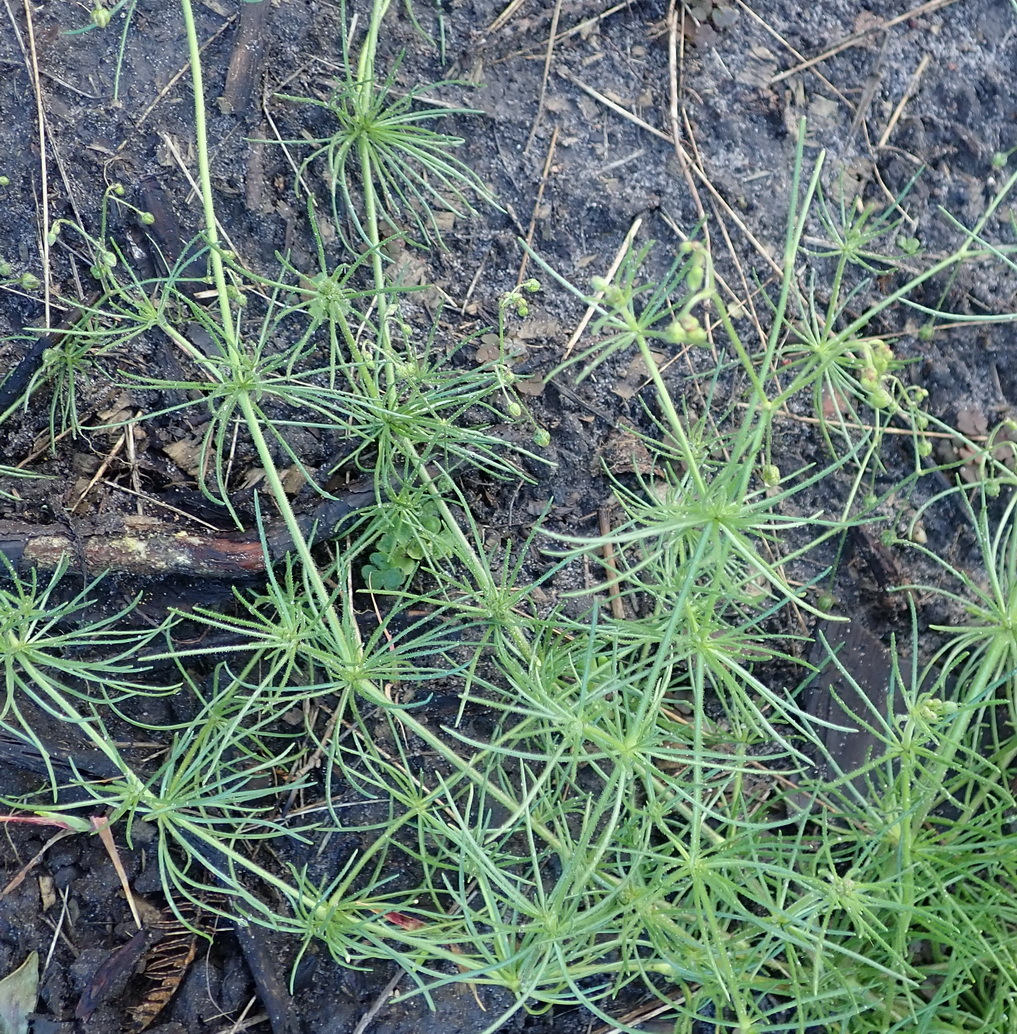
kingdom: Plantae
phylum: Tracheophyta
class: Magnoliopsida
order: Caryophyllales
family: Caryophyllaceae
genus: Spergula
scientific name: Spergula arvensis
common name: Corn spurrey
